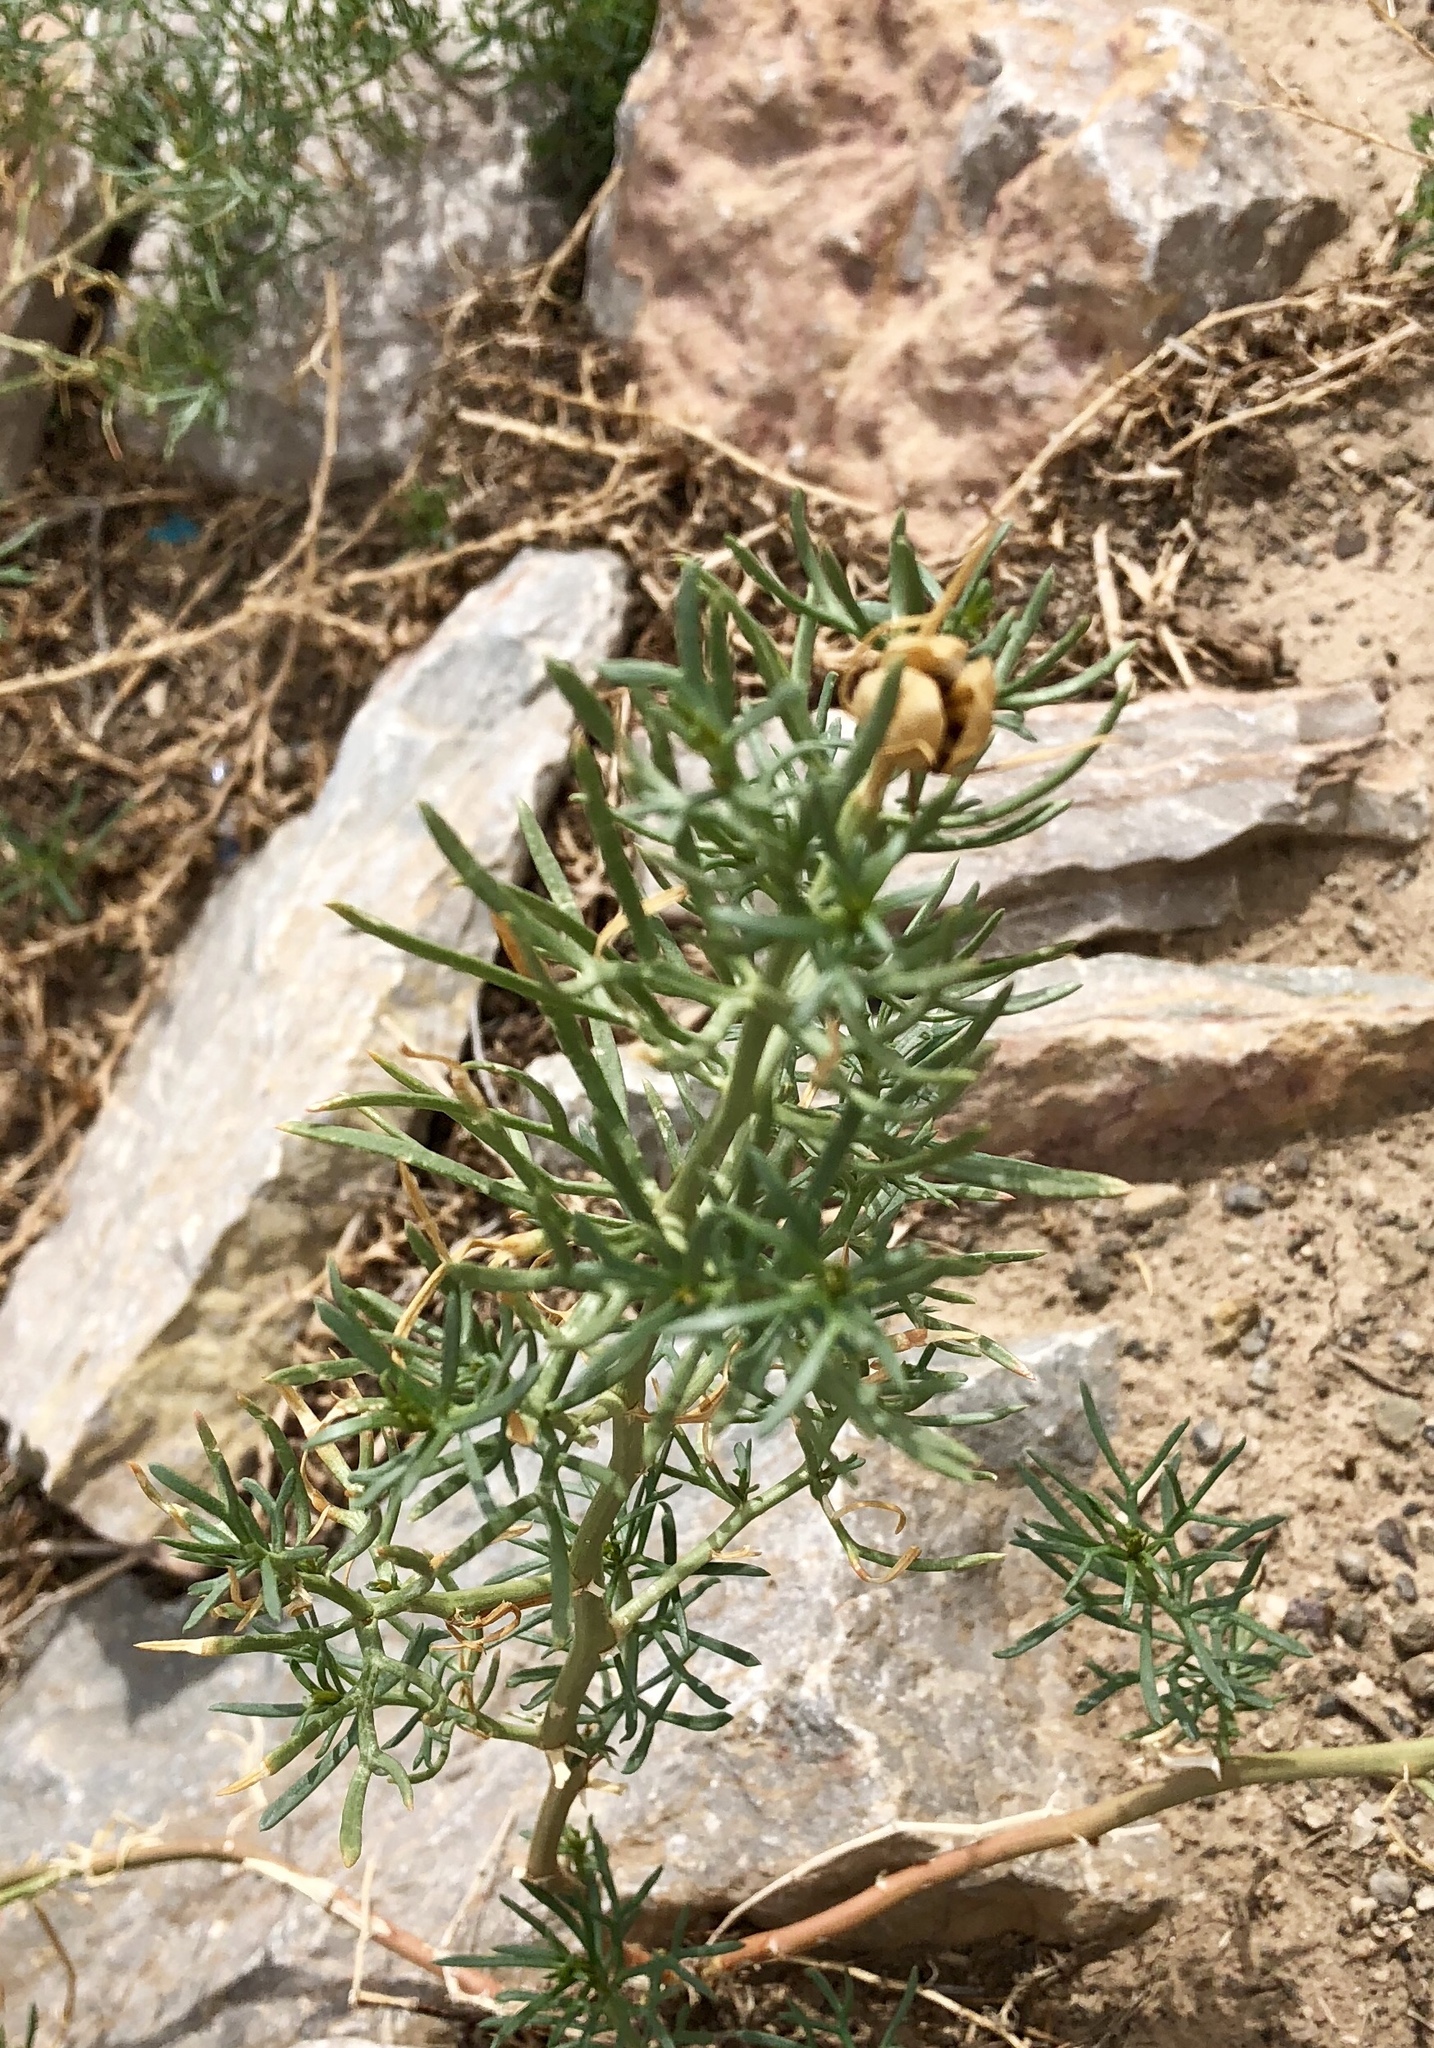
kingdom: Plantae
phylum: Tracheophyta
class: Magnoliopsida
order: Sapindales
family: Tetradiclidaceae
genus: Peganum
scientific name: Peganum harmala
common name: Harmal peganum
